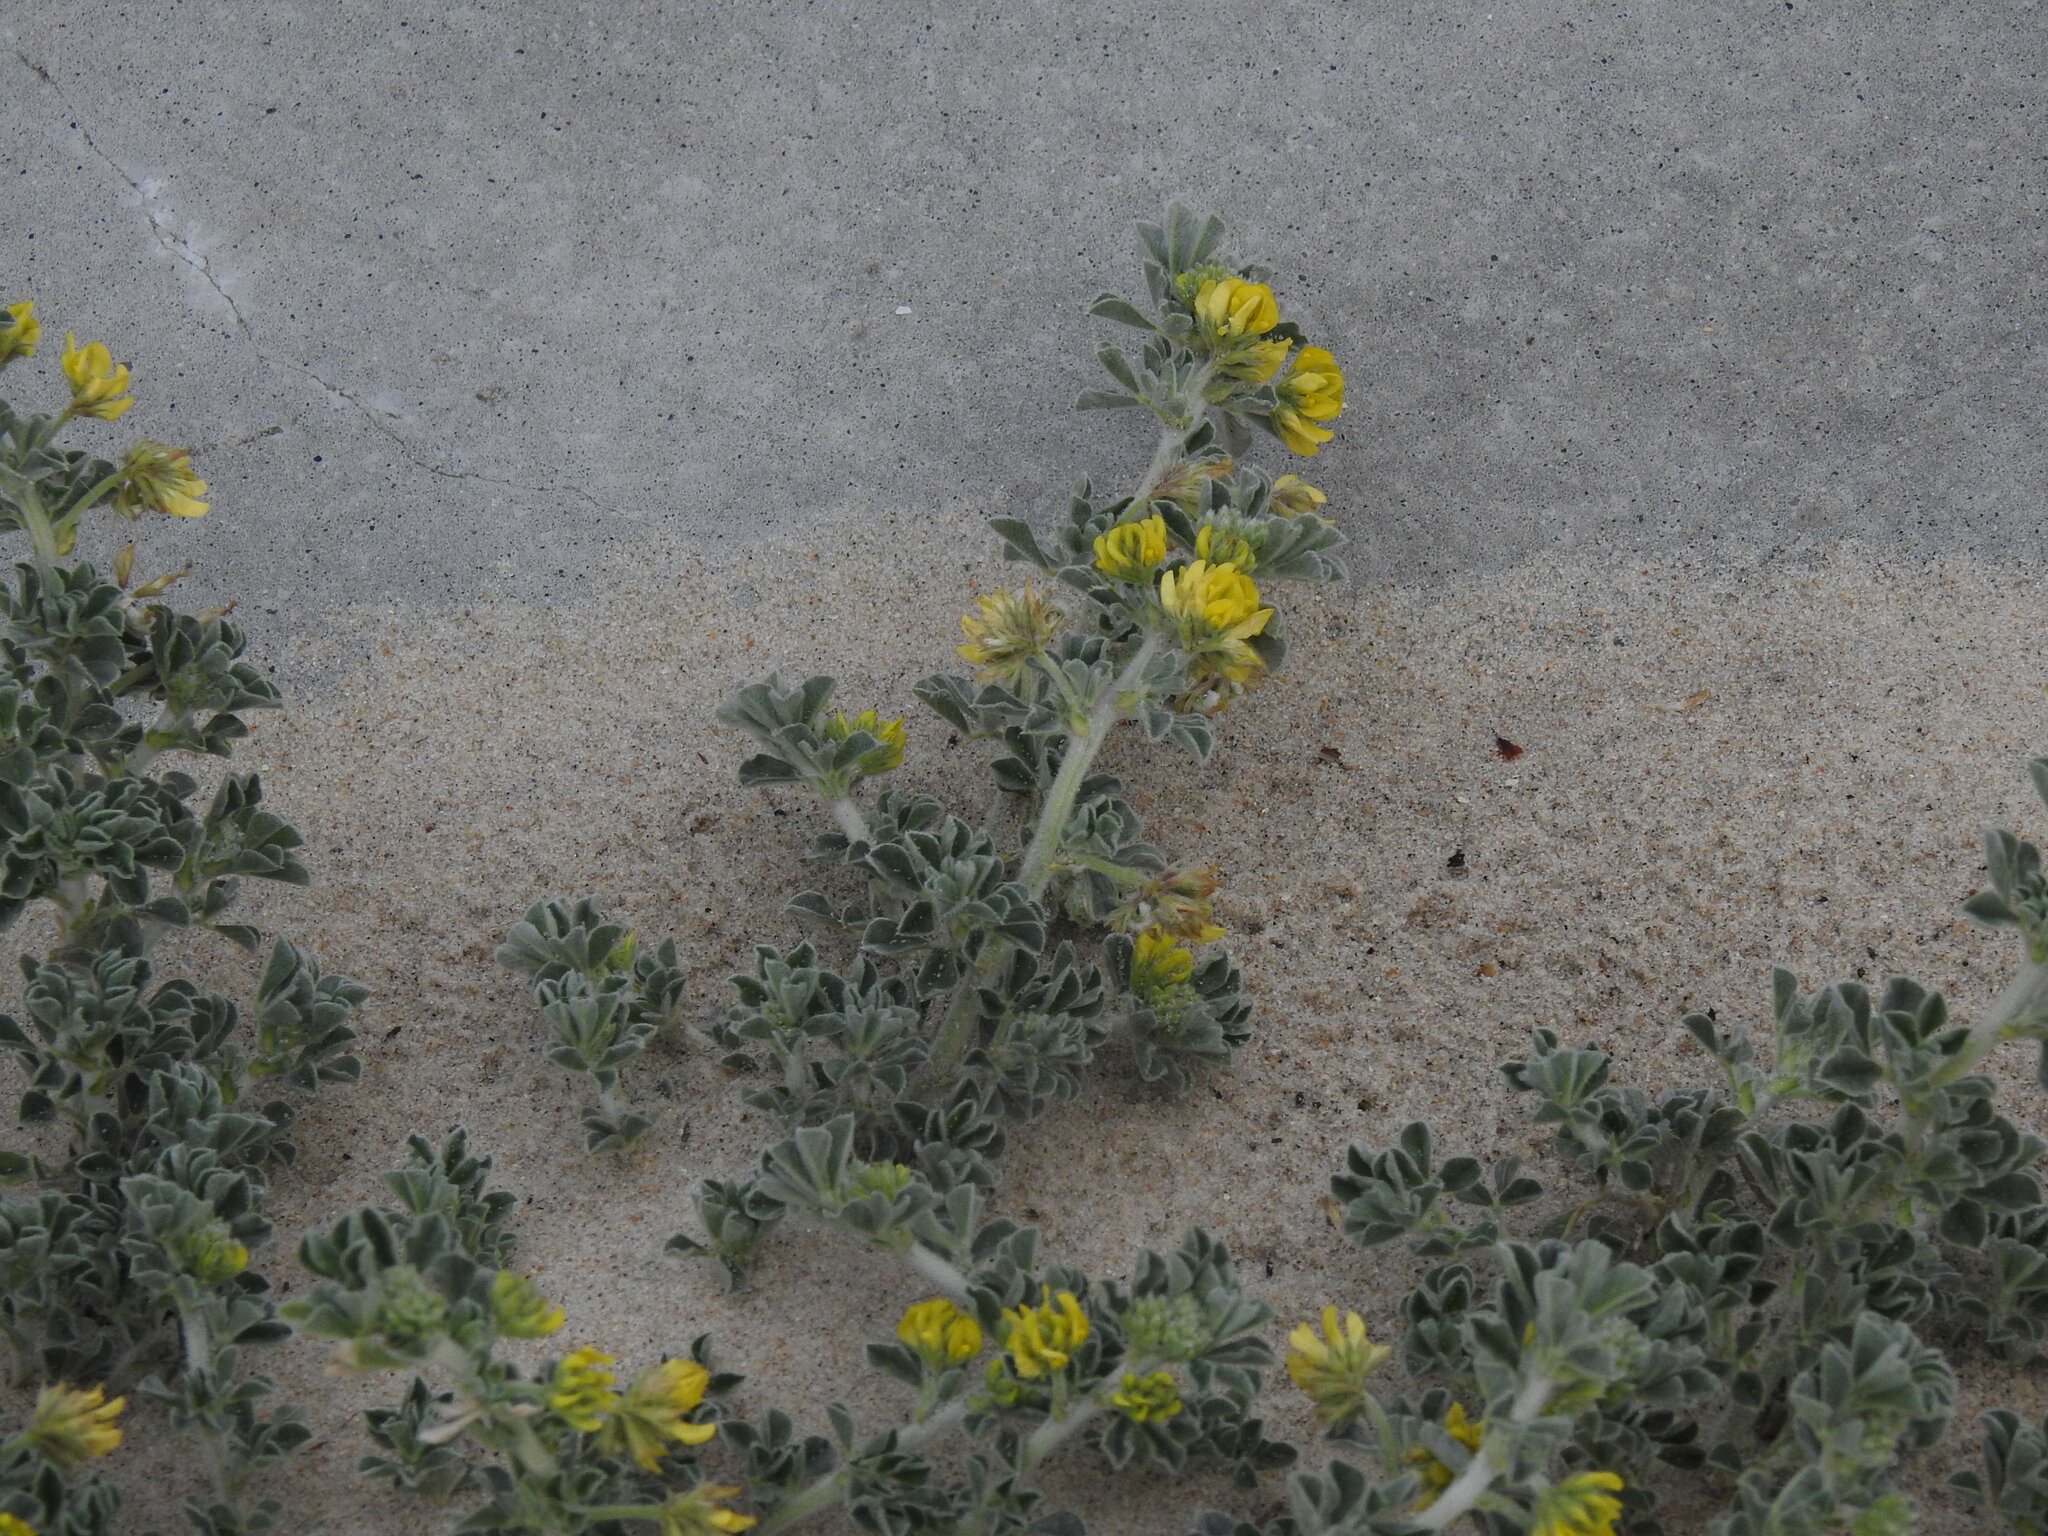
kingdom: Plantae
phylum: Tracheophyta
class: Magnoliopsida
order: Fabales
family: Fabaceae
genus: Medicago
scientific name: Medicago marina
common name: Sea medick
